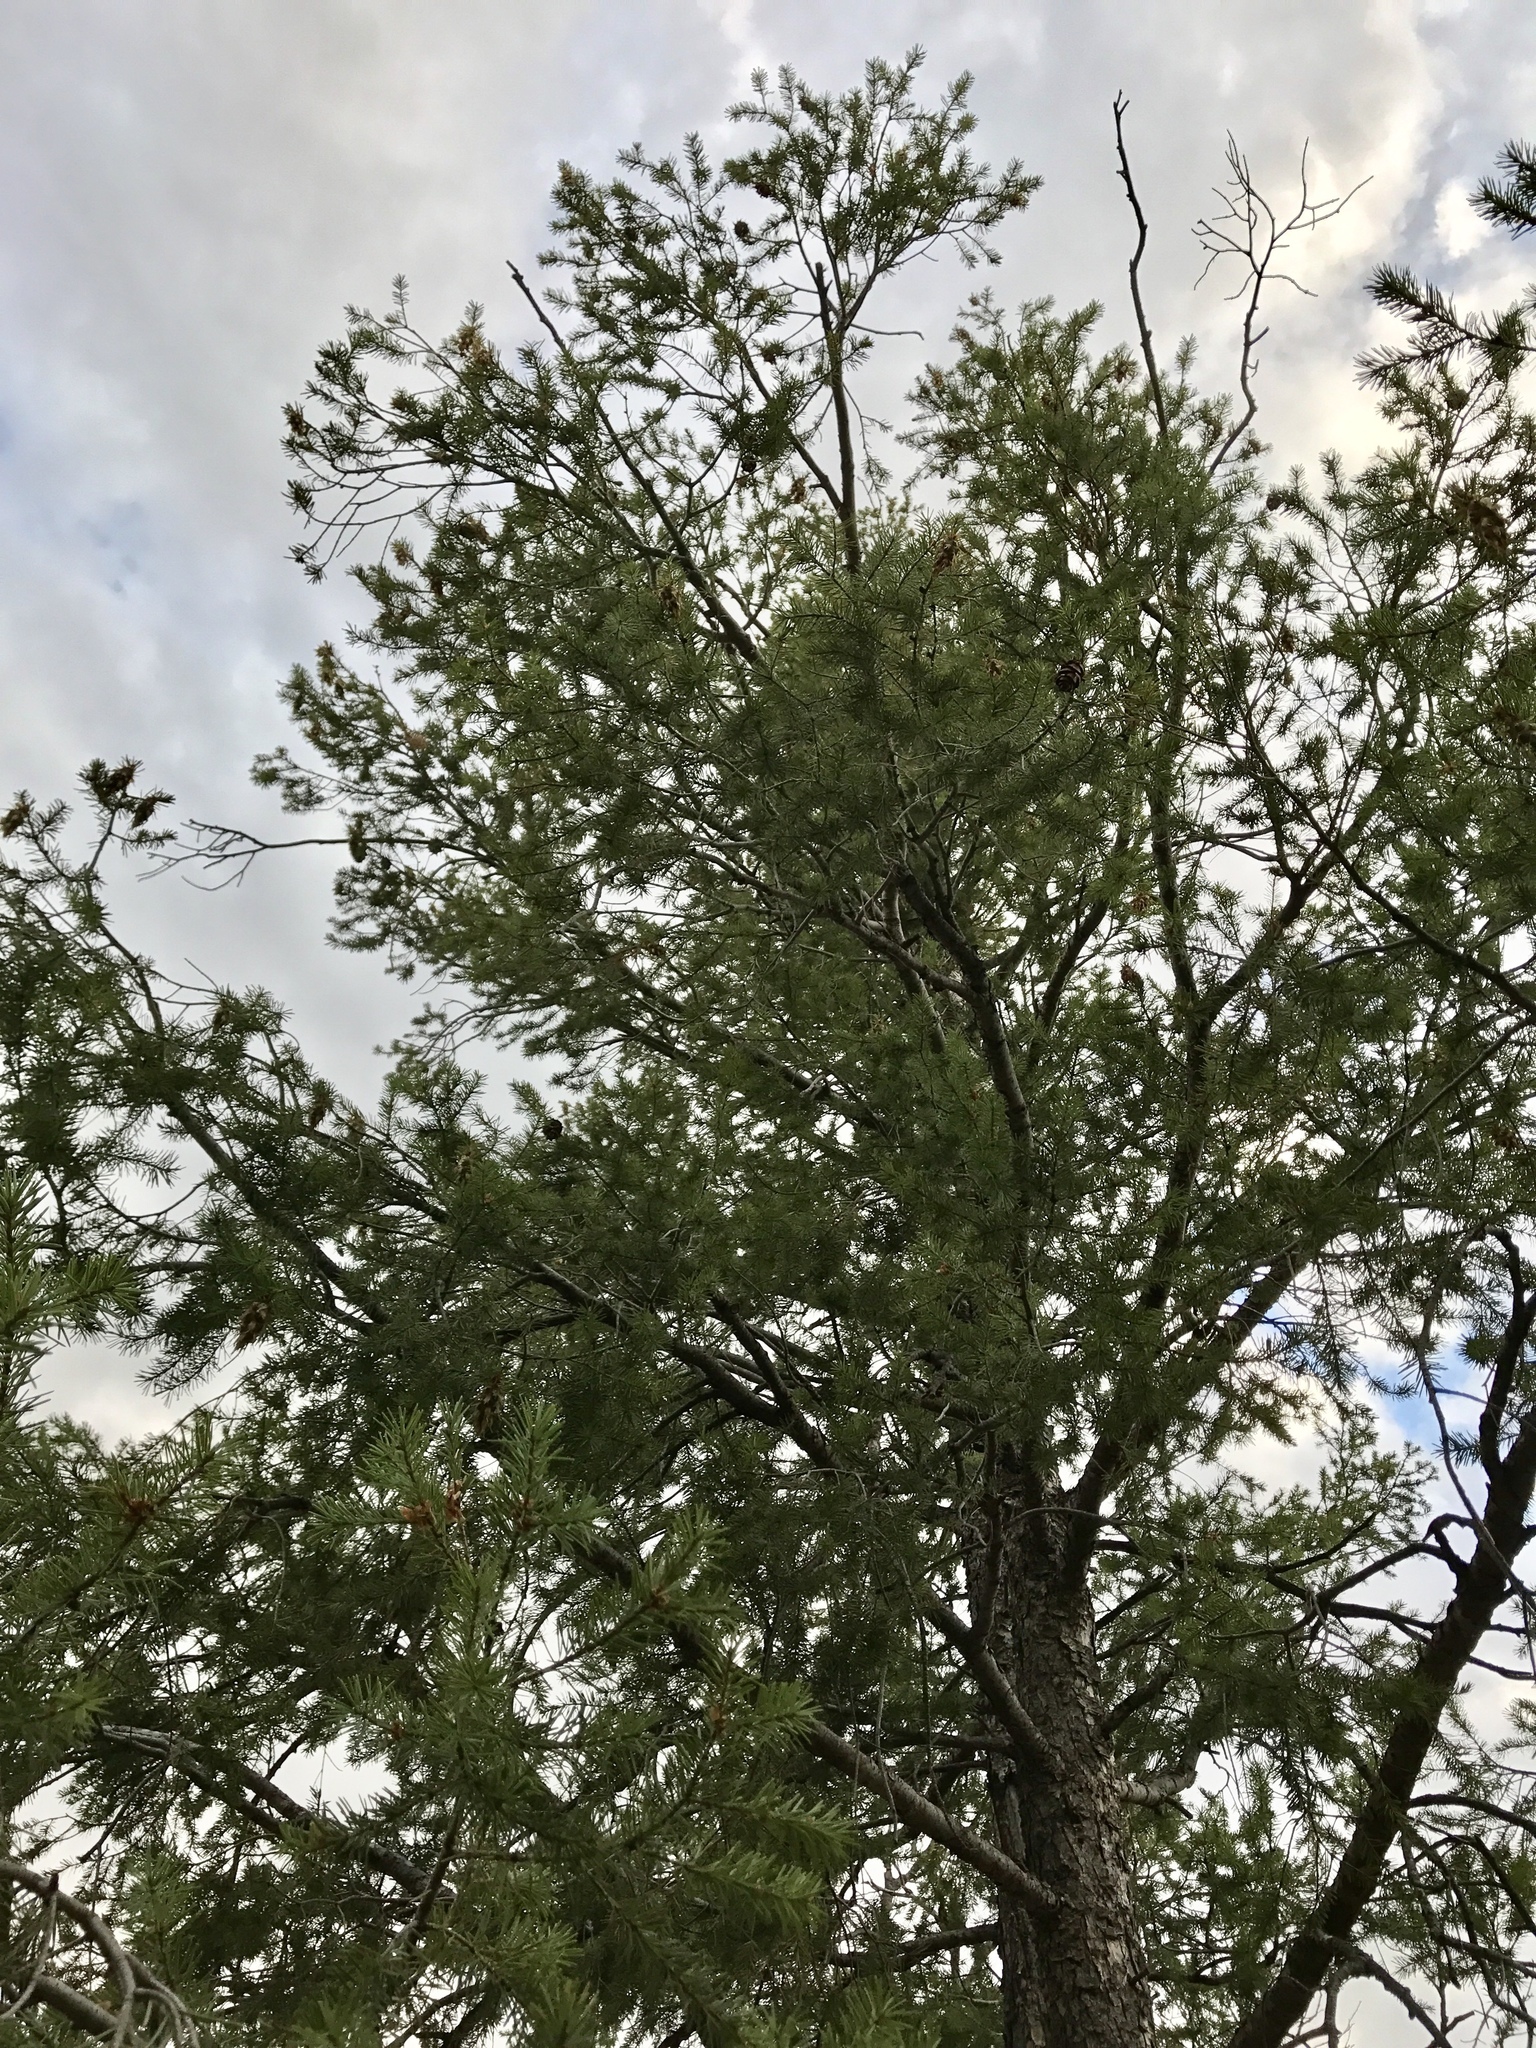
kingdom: Plantae
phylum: Tracheophyta
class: Pinopsida
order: Pinales
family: Pinaceae
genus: Pseudotsuga
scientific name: Pseudotsuga menziesii
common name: Douglas fir
